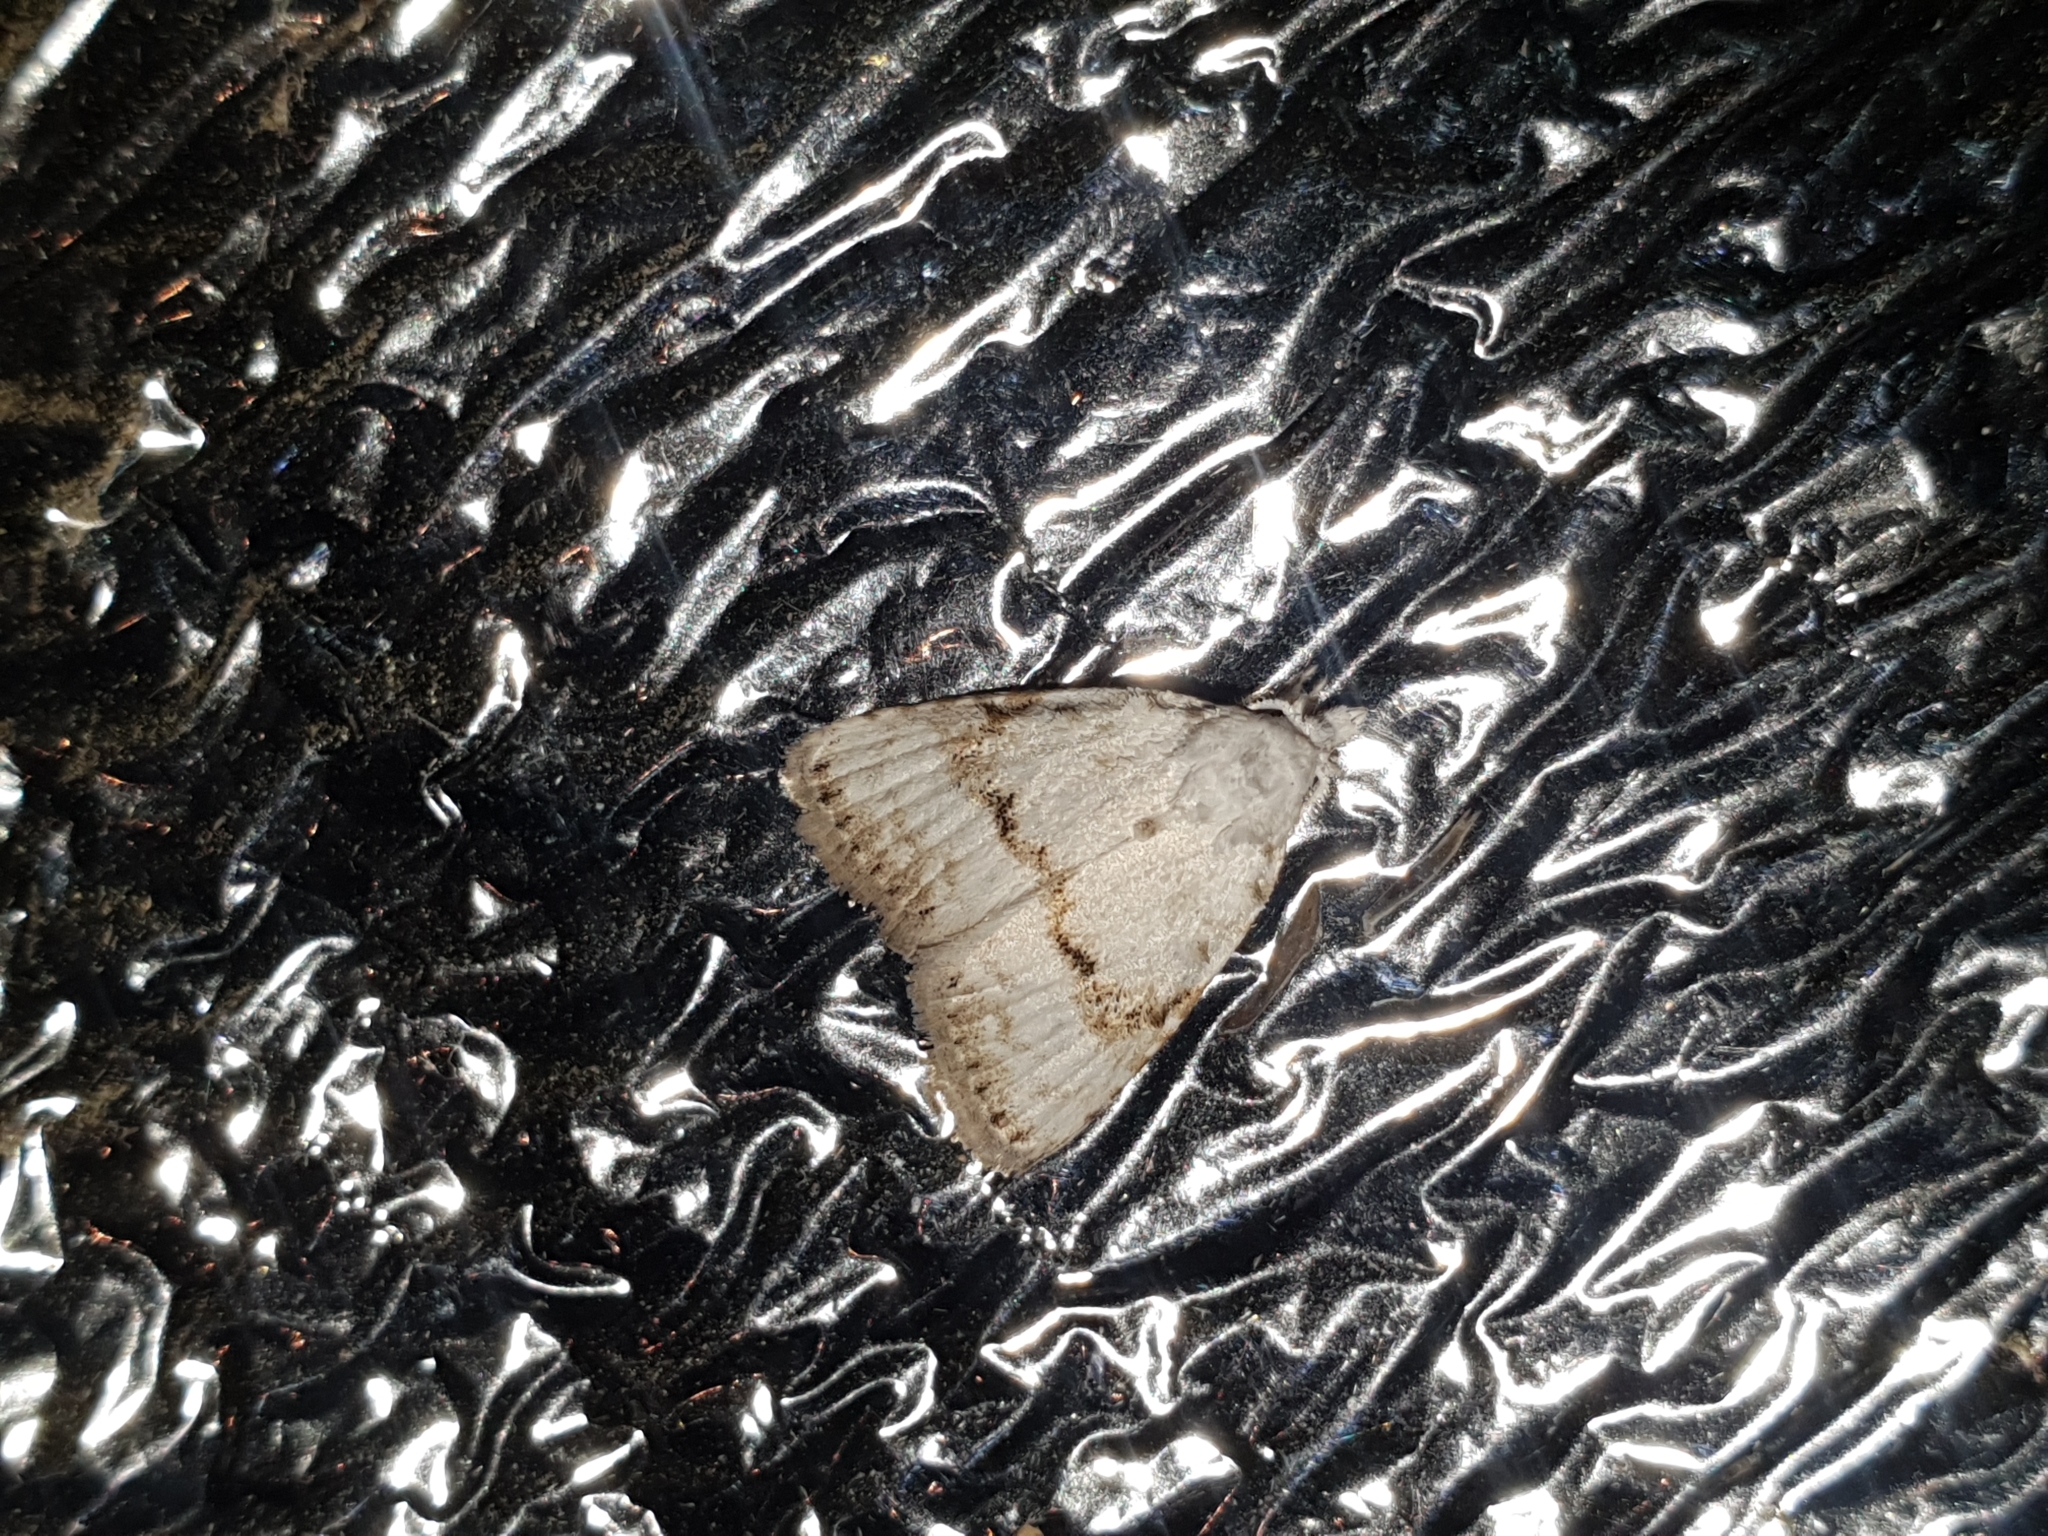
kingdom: Animalia
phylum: Arthropoda
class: Insecta
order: Lepidoptera
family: Nolidae
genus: Nola
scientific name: Nola aerugula
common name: Scarce black arches
